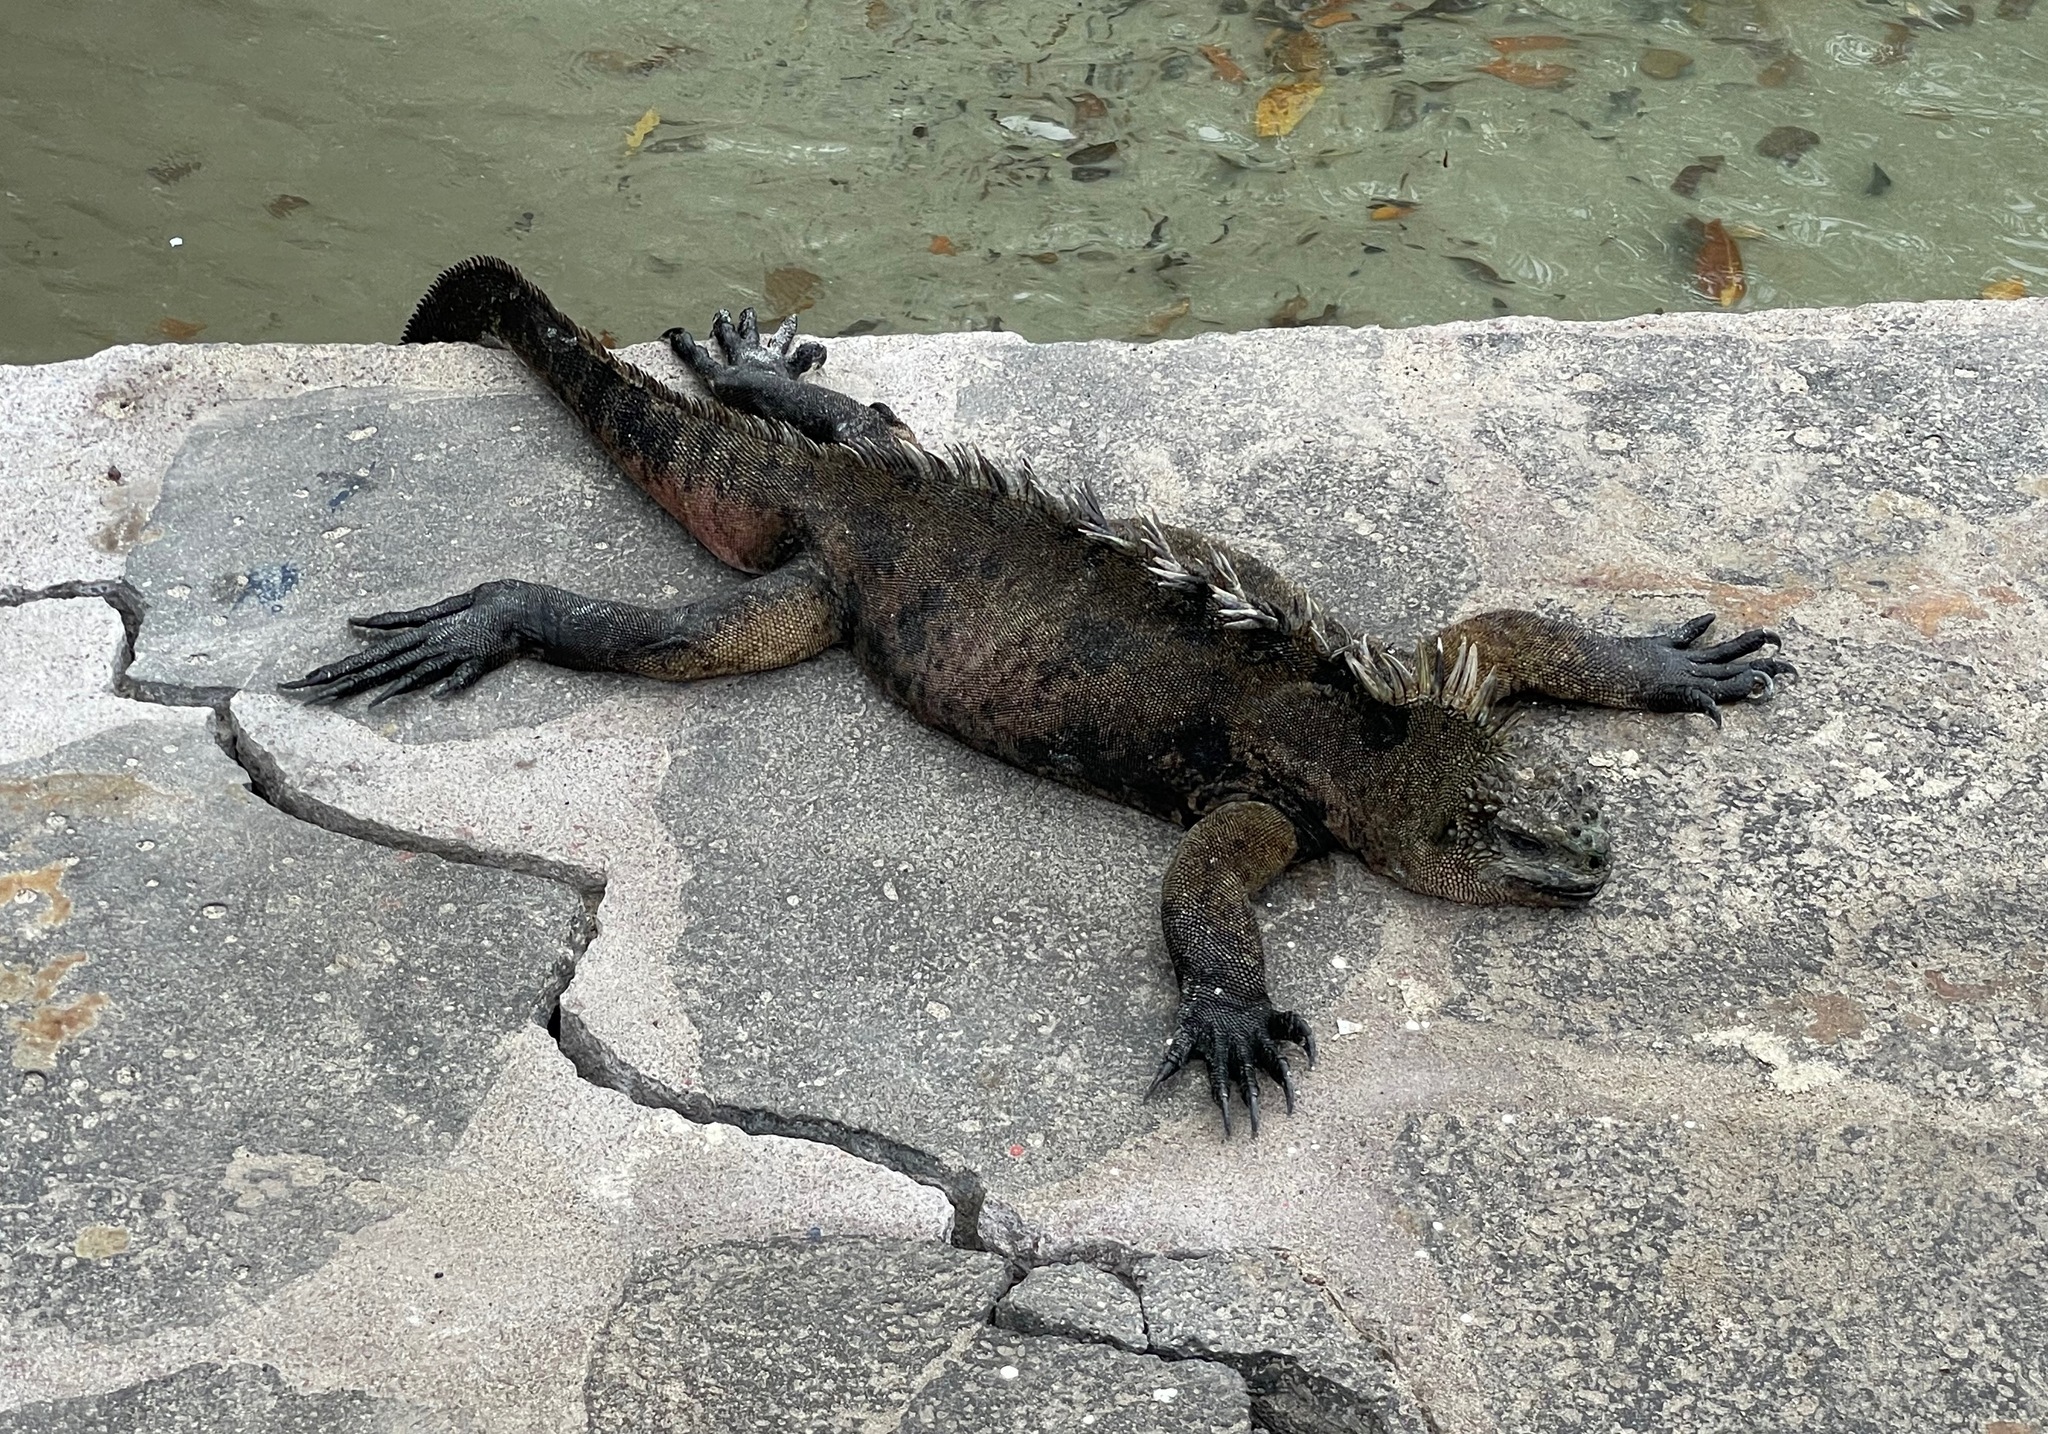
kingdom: Animalia
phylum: Chordata
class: Squamata
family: Iguanidae
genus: Amblyrhynchus
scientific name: Amblyrhynchus cristatus
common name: Marine iguana
